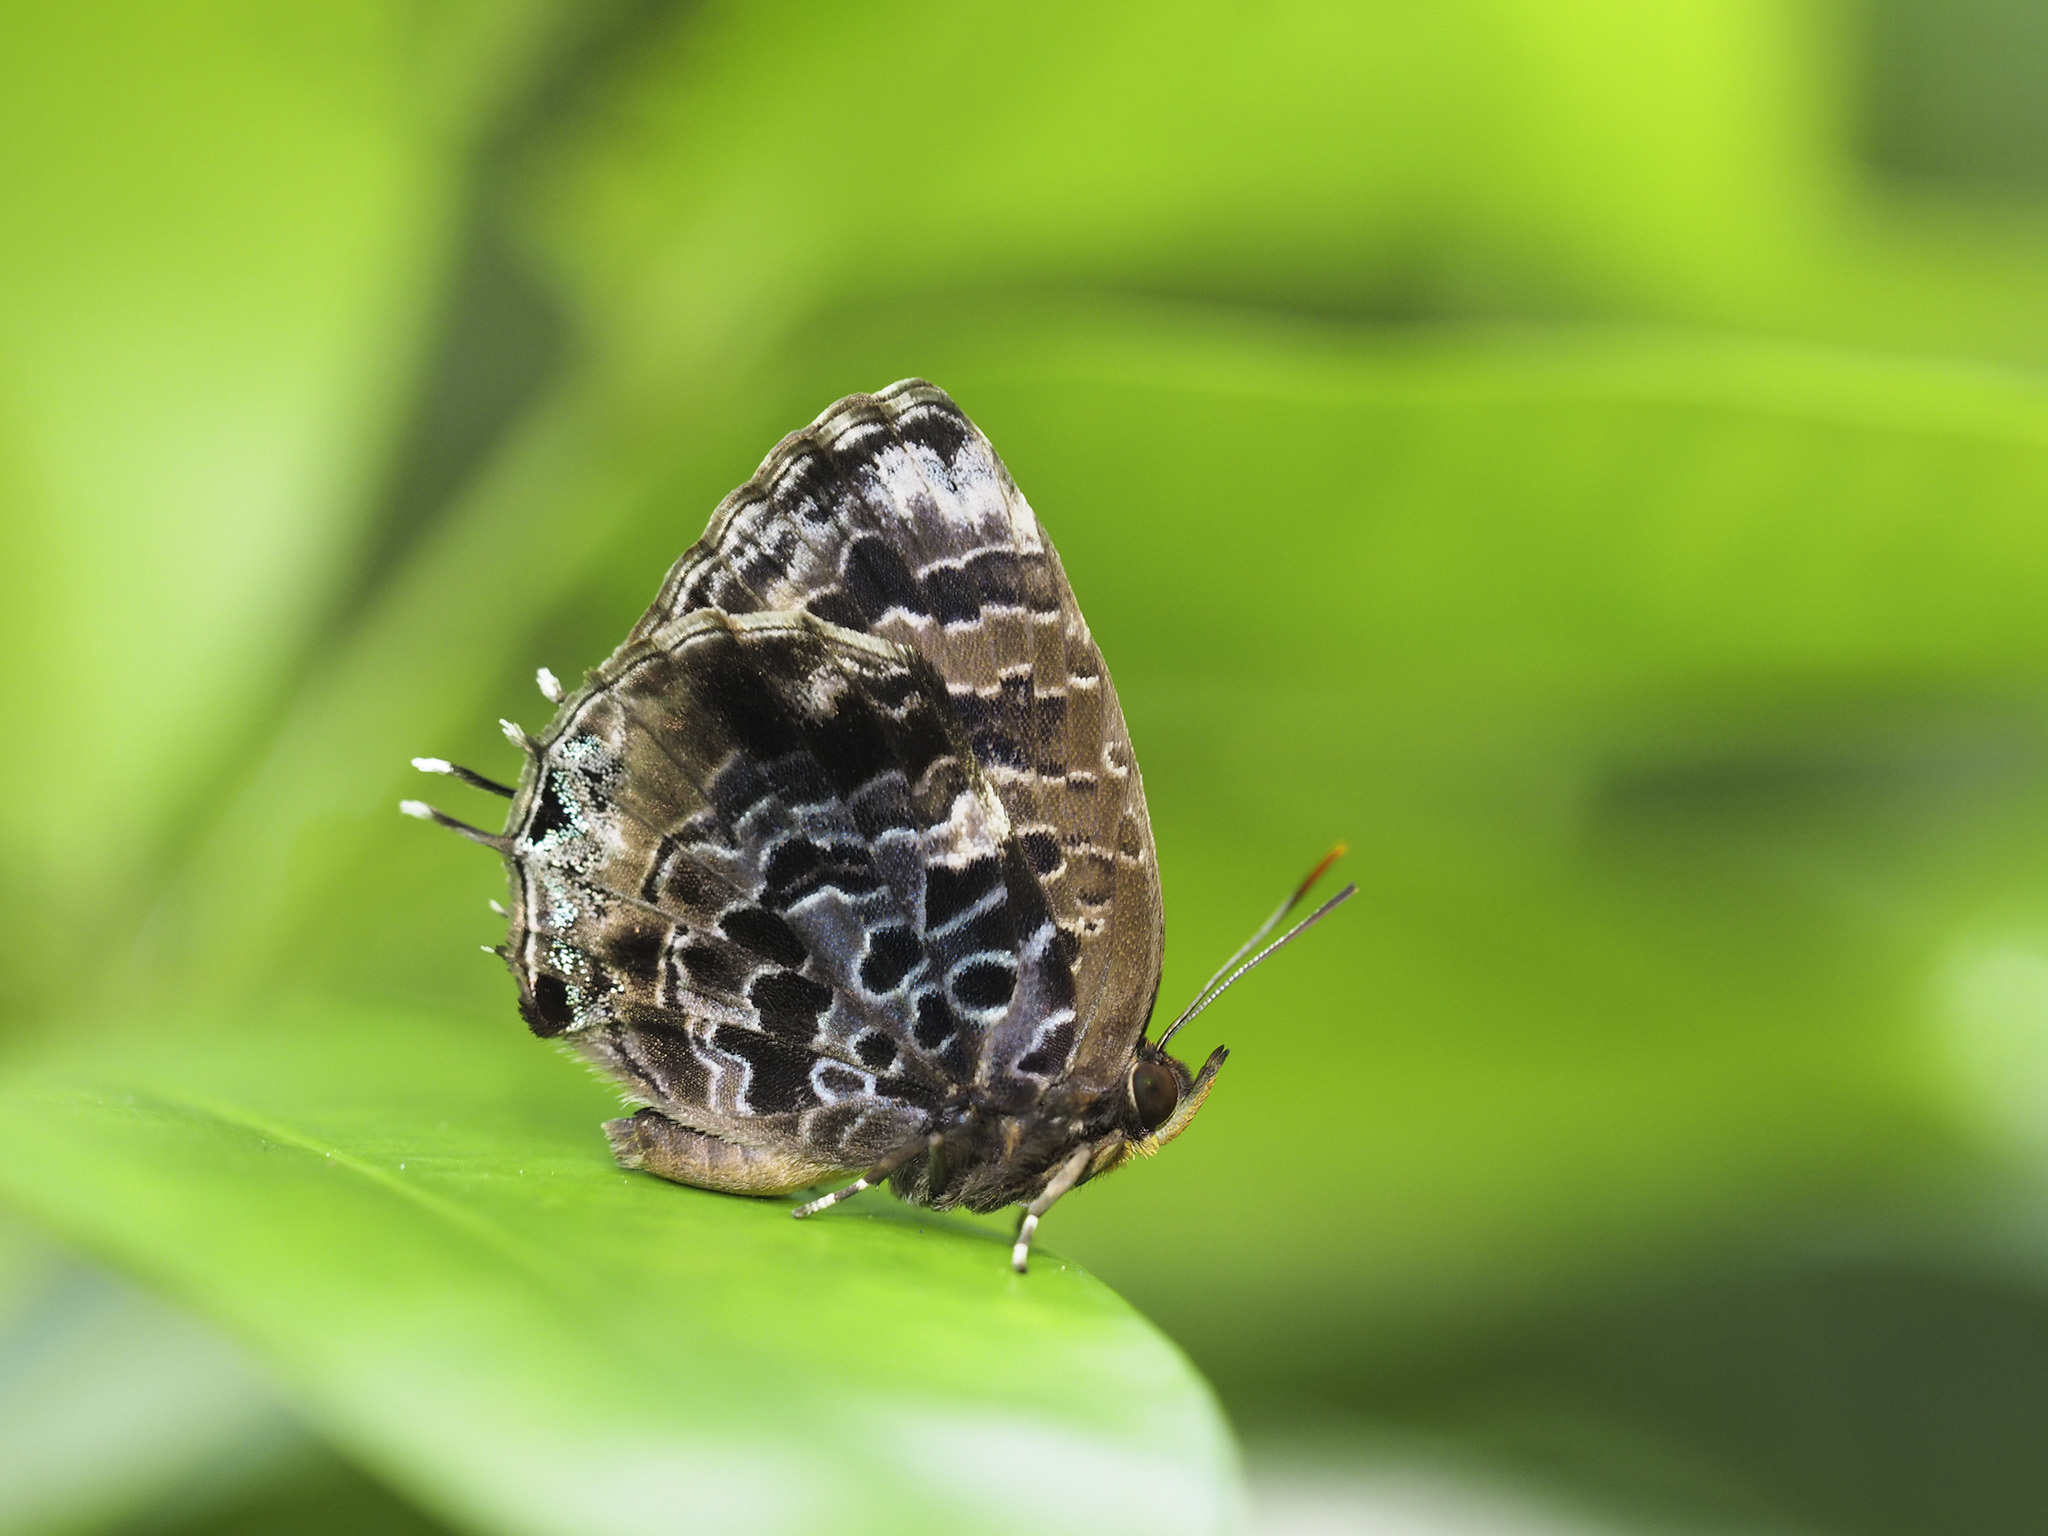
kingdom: Animalia
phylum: Arthropoda
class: Insecta
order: Lepidoptera
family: Lycaenidae
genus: Arhopala
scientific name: Arhopala abseus
